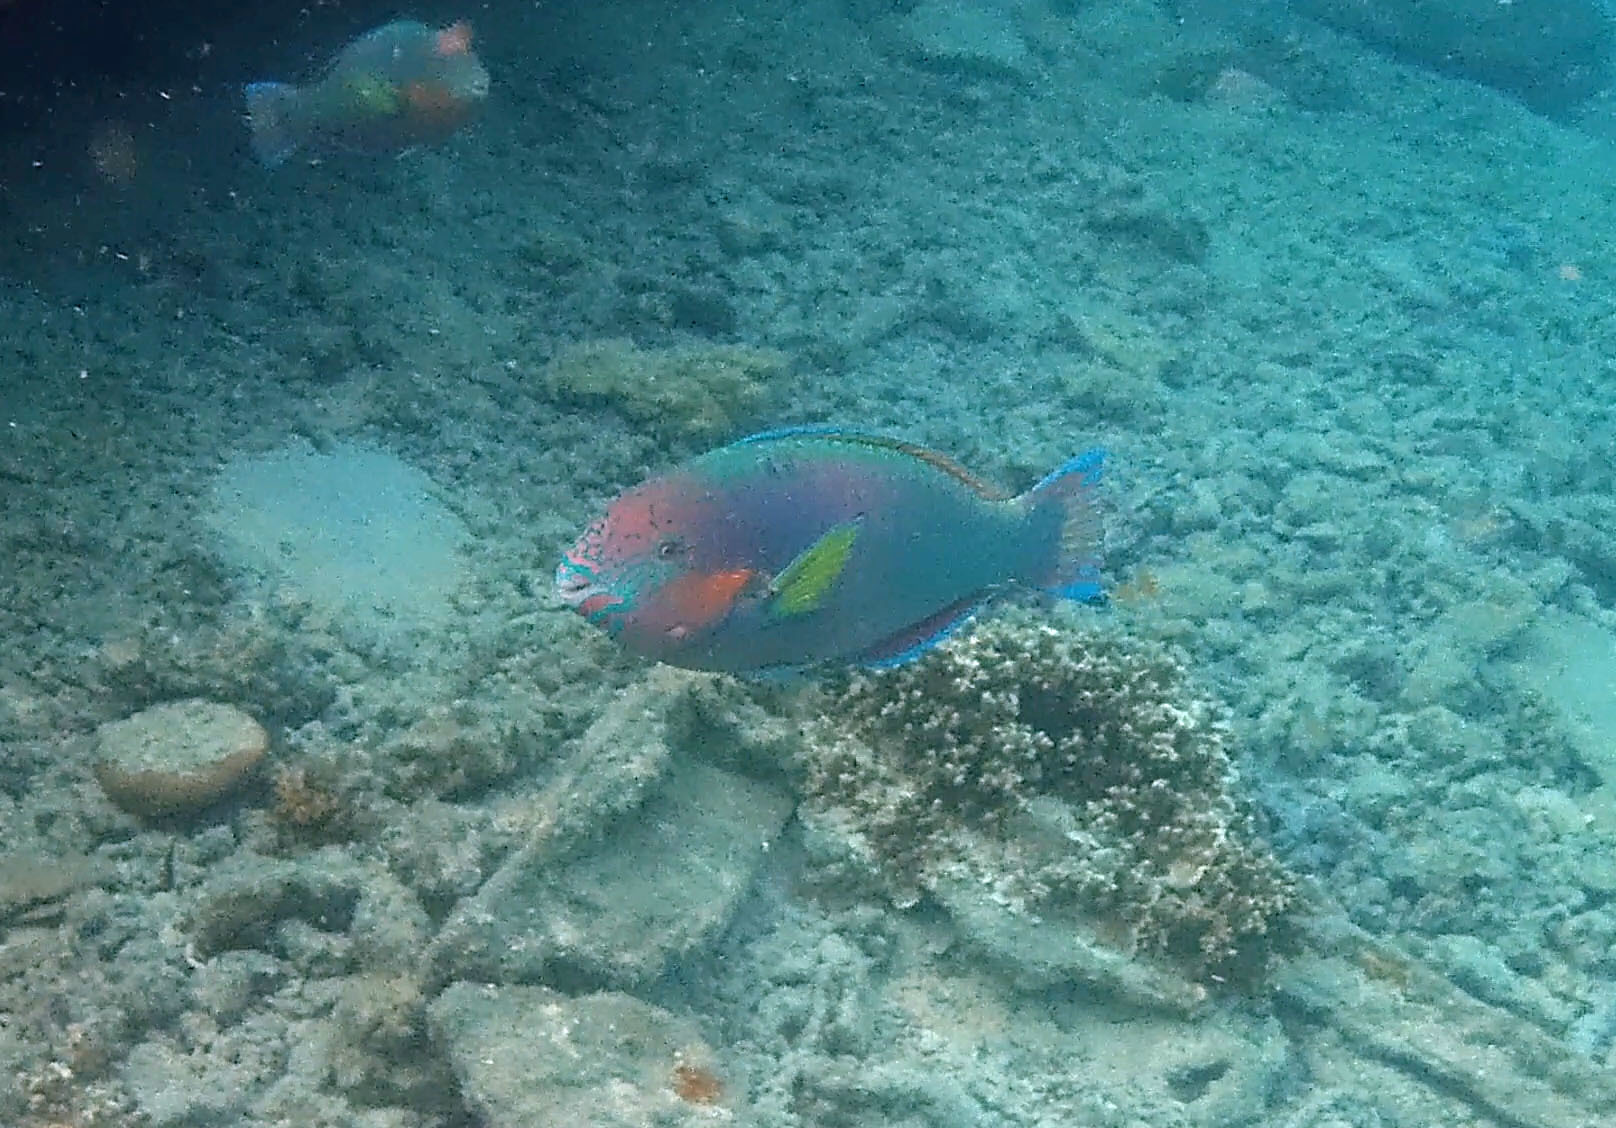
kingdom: Animalia
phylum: Chordata
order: Perciformes
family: Scaridae
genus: Scarus
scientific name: Scarus rivulatus
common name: Surf parrotfish
